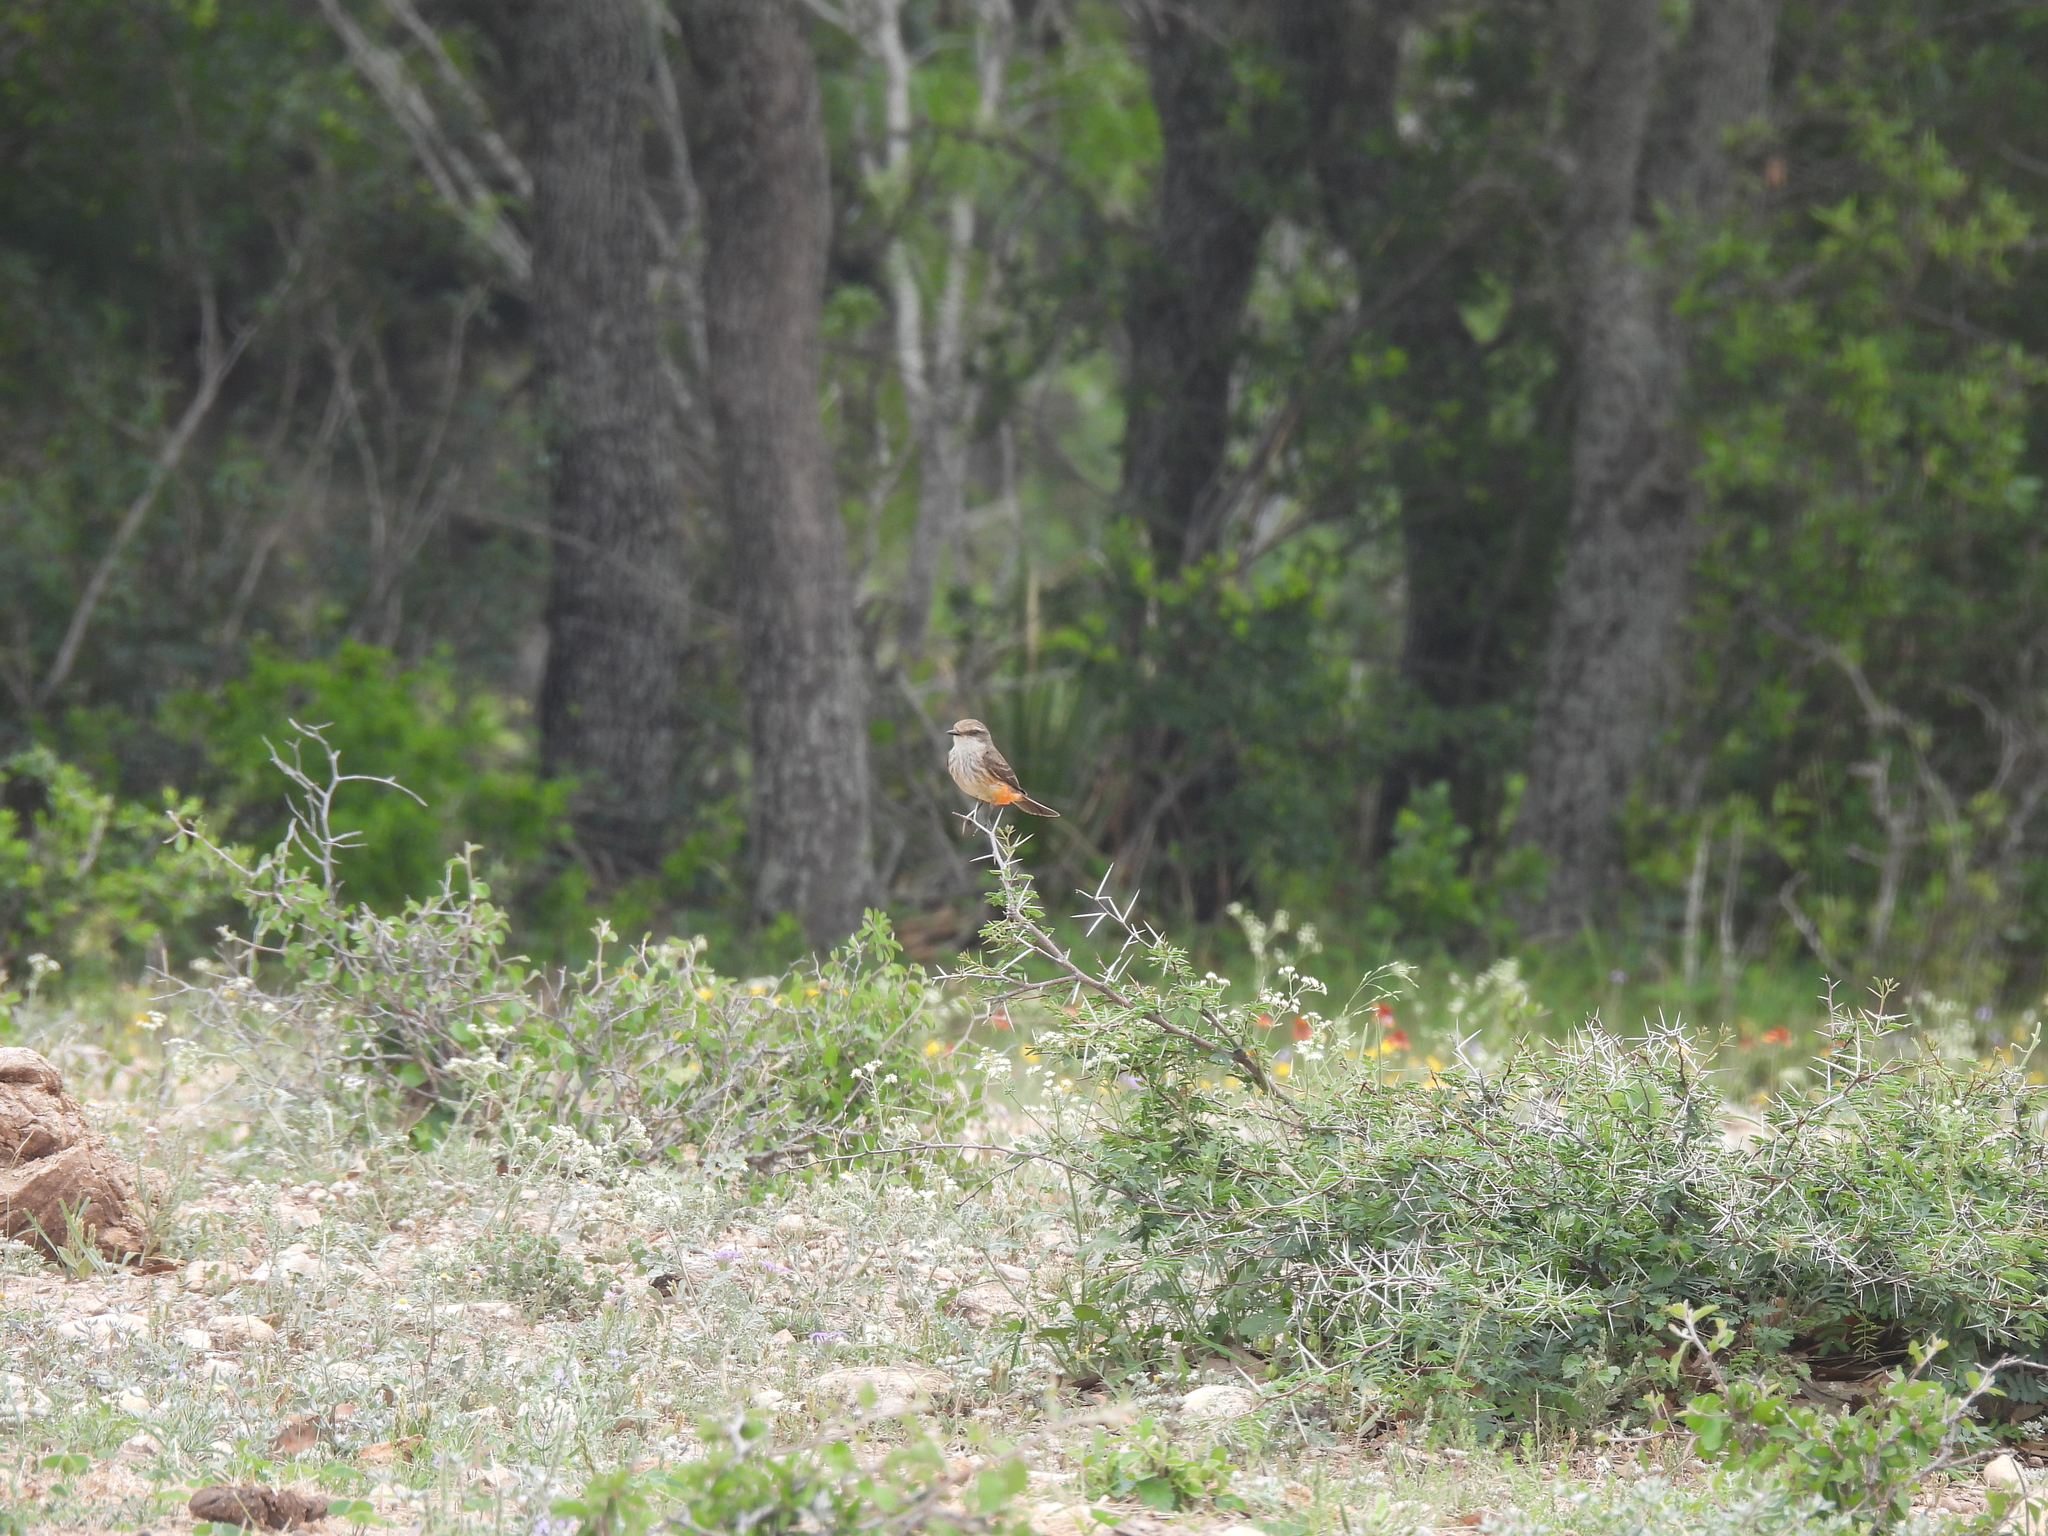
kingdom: Animalia
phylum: Chordata
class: Aves
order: Passeriformes
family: Tyrannidae
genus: Pyrocephalus
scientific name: Pyrocephalus rubinus
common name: Vermilion flycatcher
